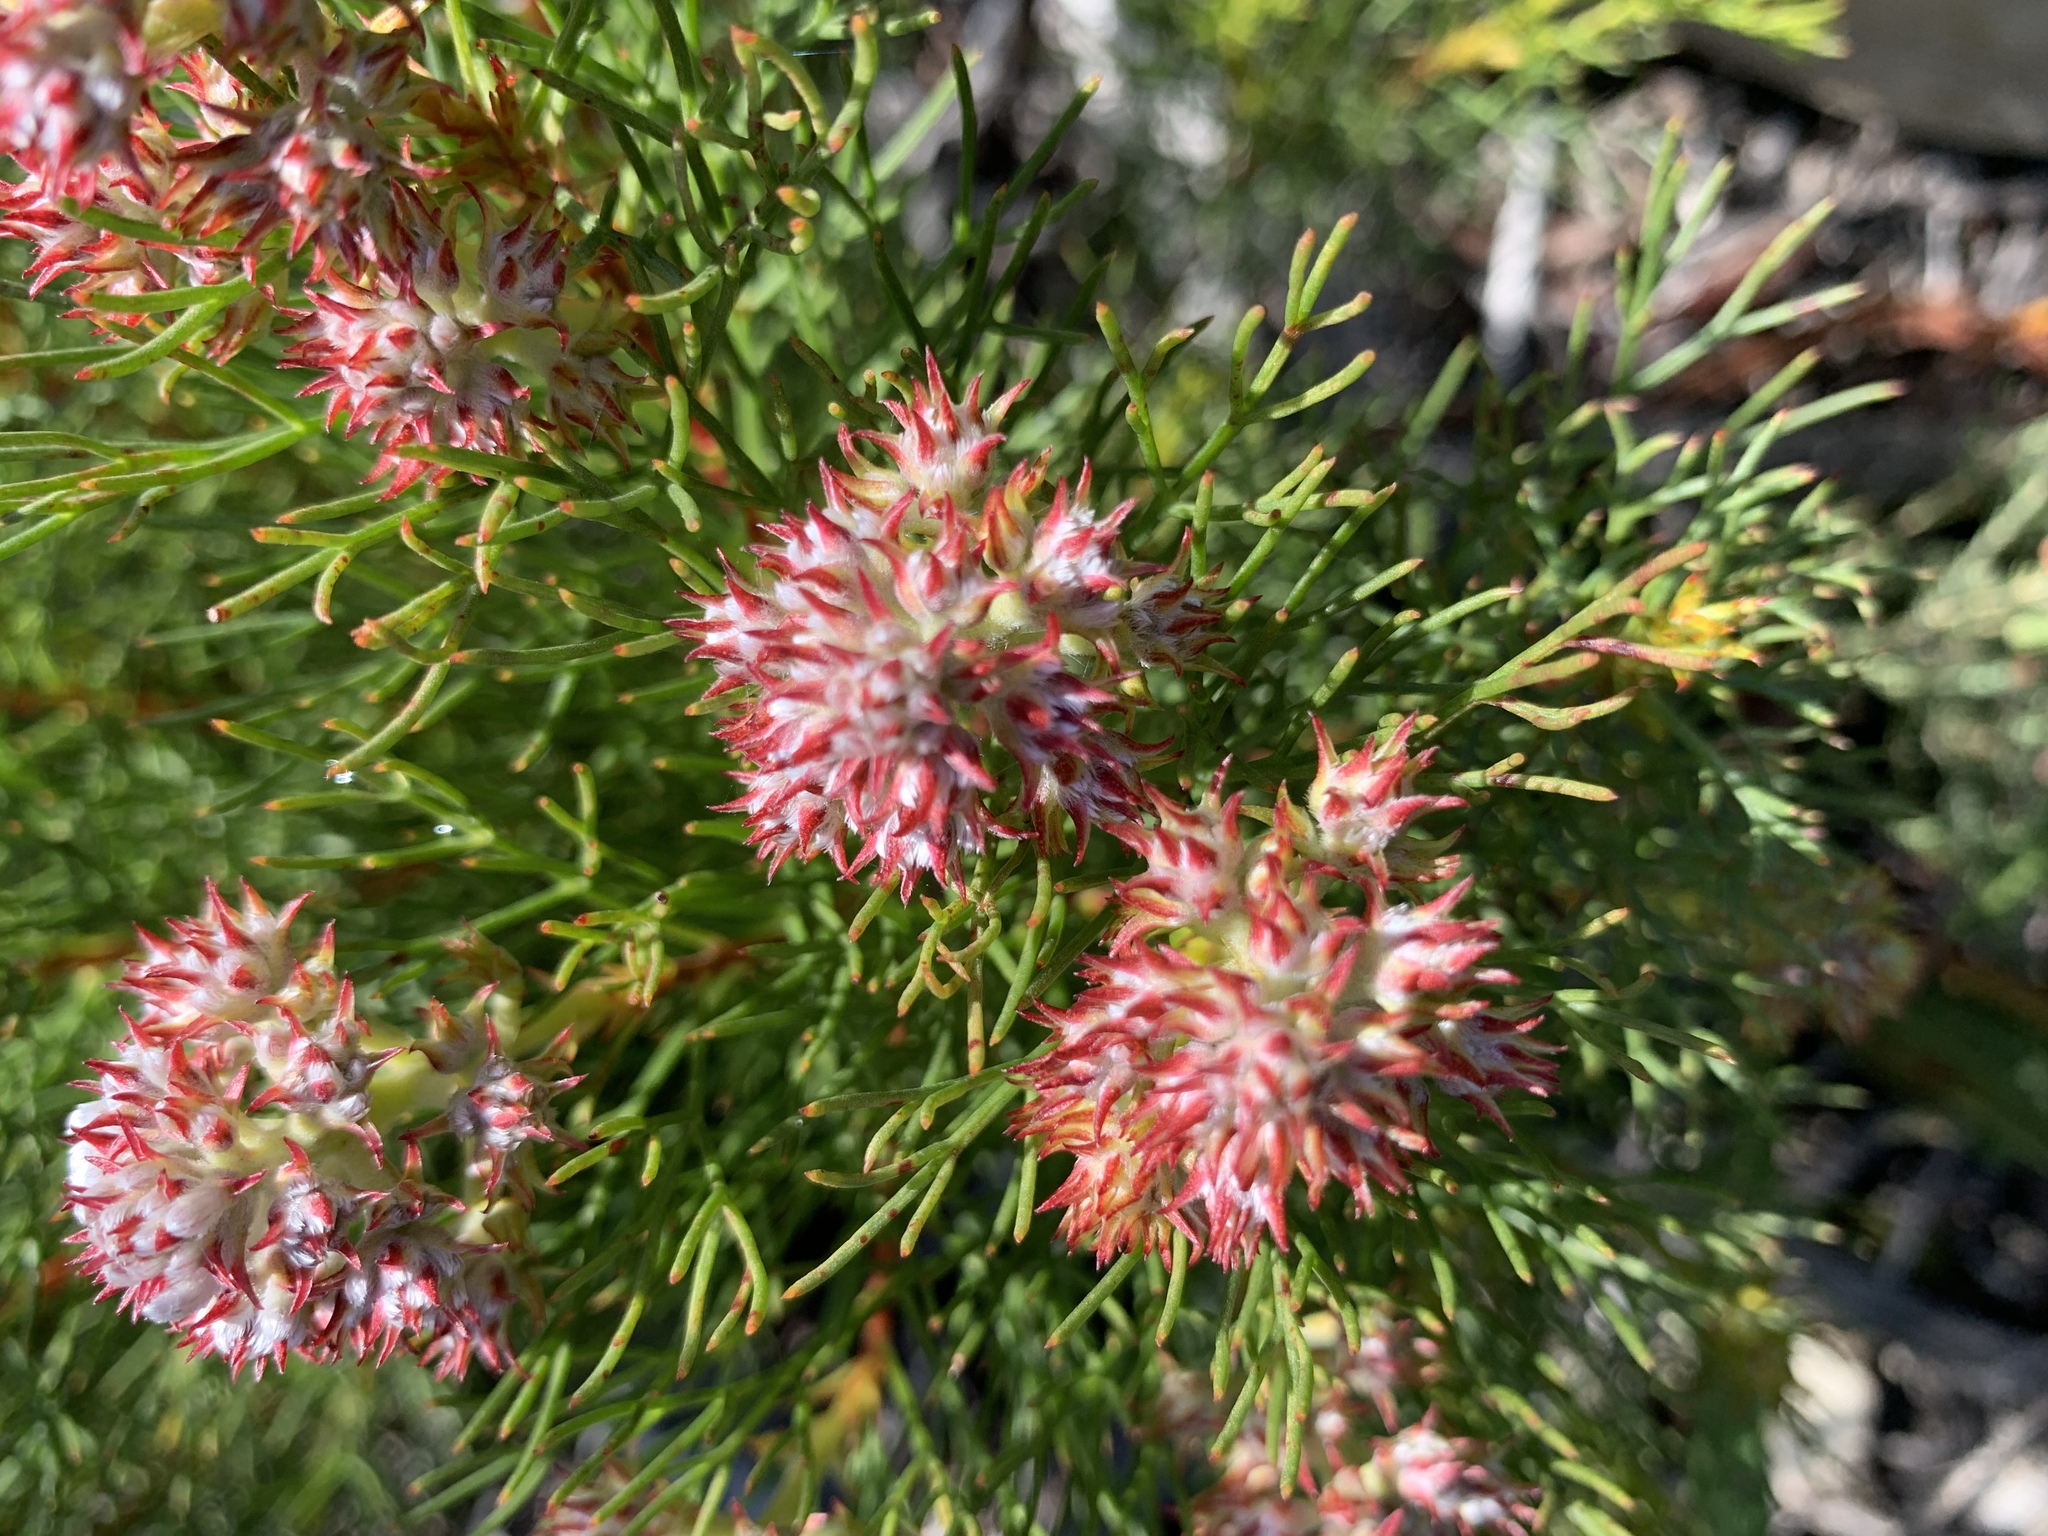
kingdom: Plantae
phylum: Tracheophyta
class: Magnoliopsida
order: Proteales
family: Proteaceae
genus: Serruria
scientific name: Serruria rubricaulis
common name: Red-stem spiderhead
